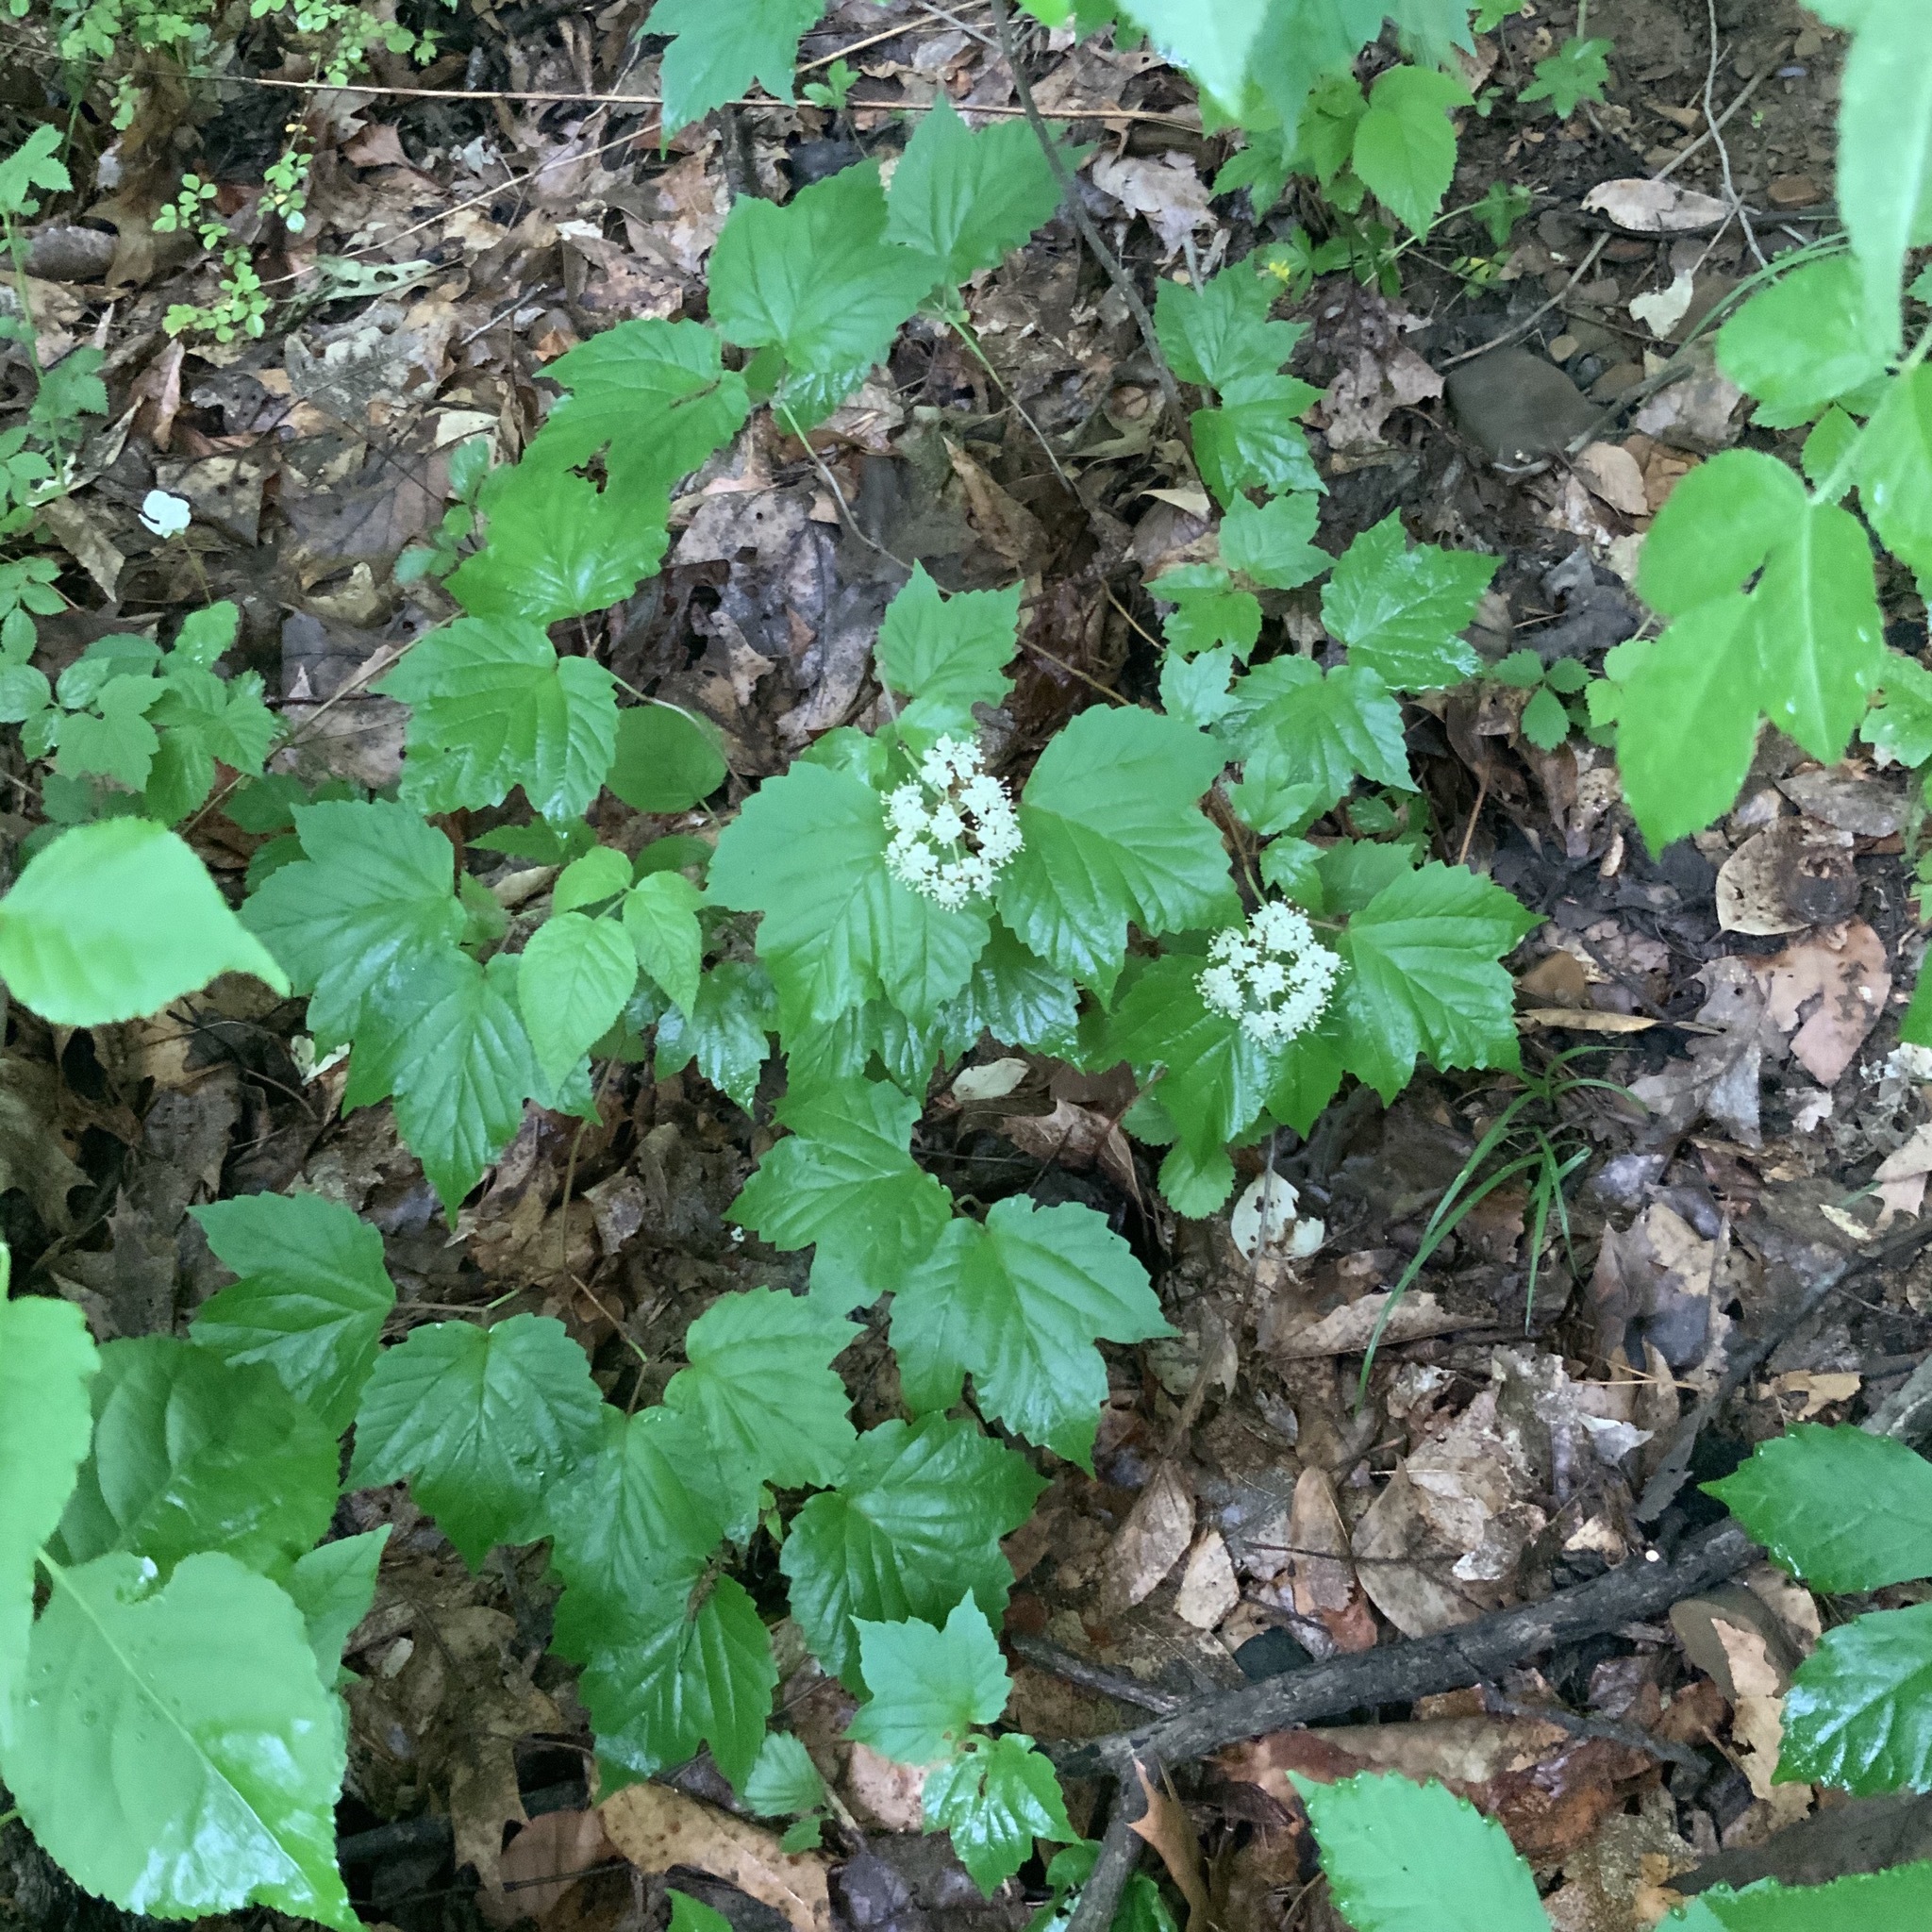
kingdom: Plantae
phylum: Tracheophyta
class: Magnoliopsida
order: Dipsacales
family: Viburnaceae
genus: Viburnum
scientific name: Viburnum acerifolium
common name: Dockmackie
